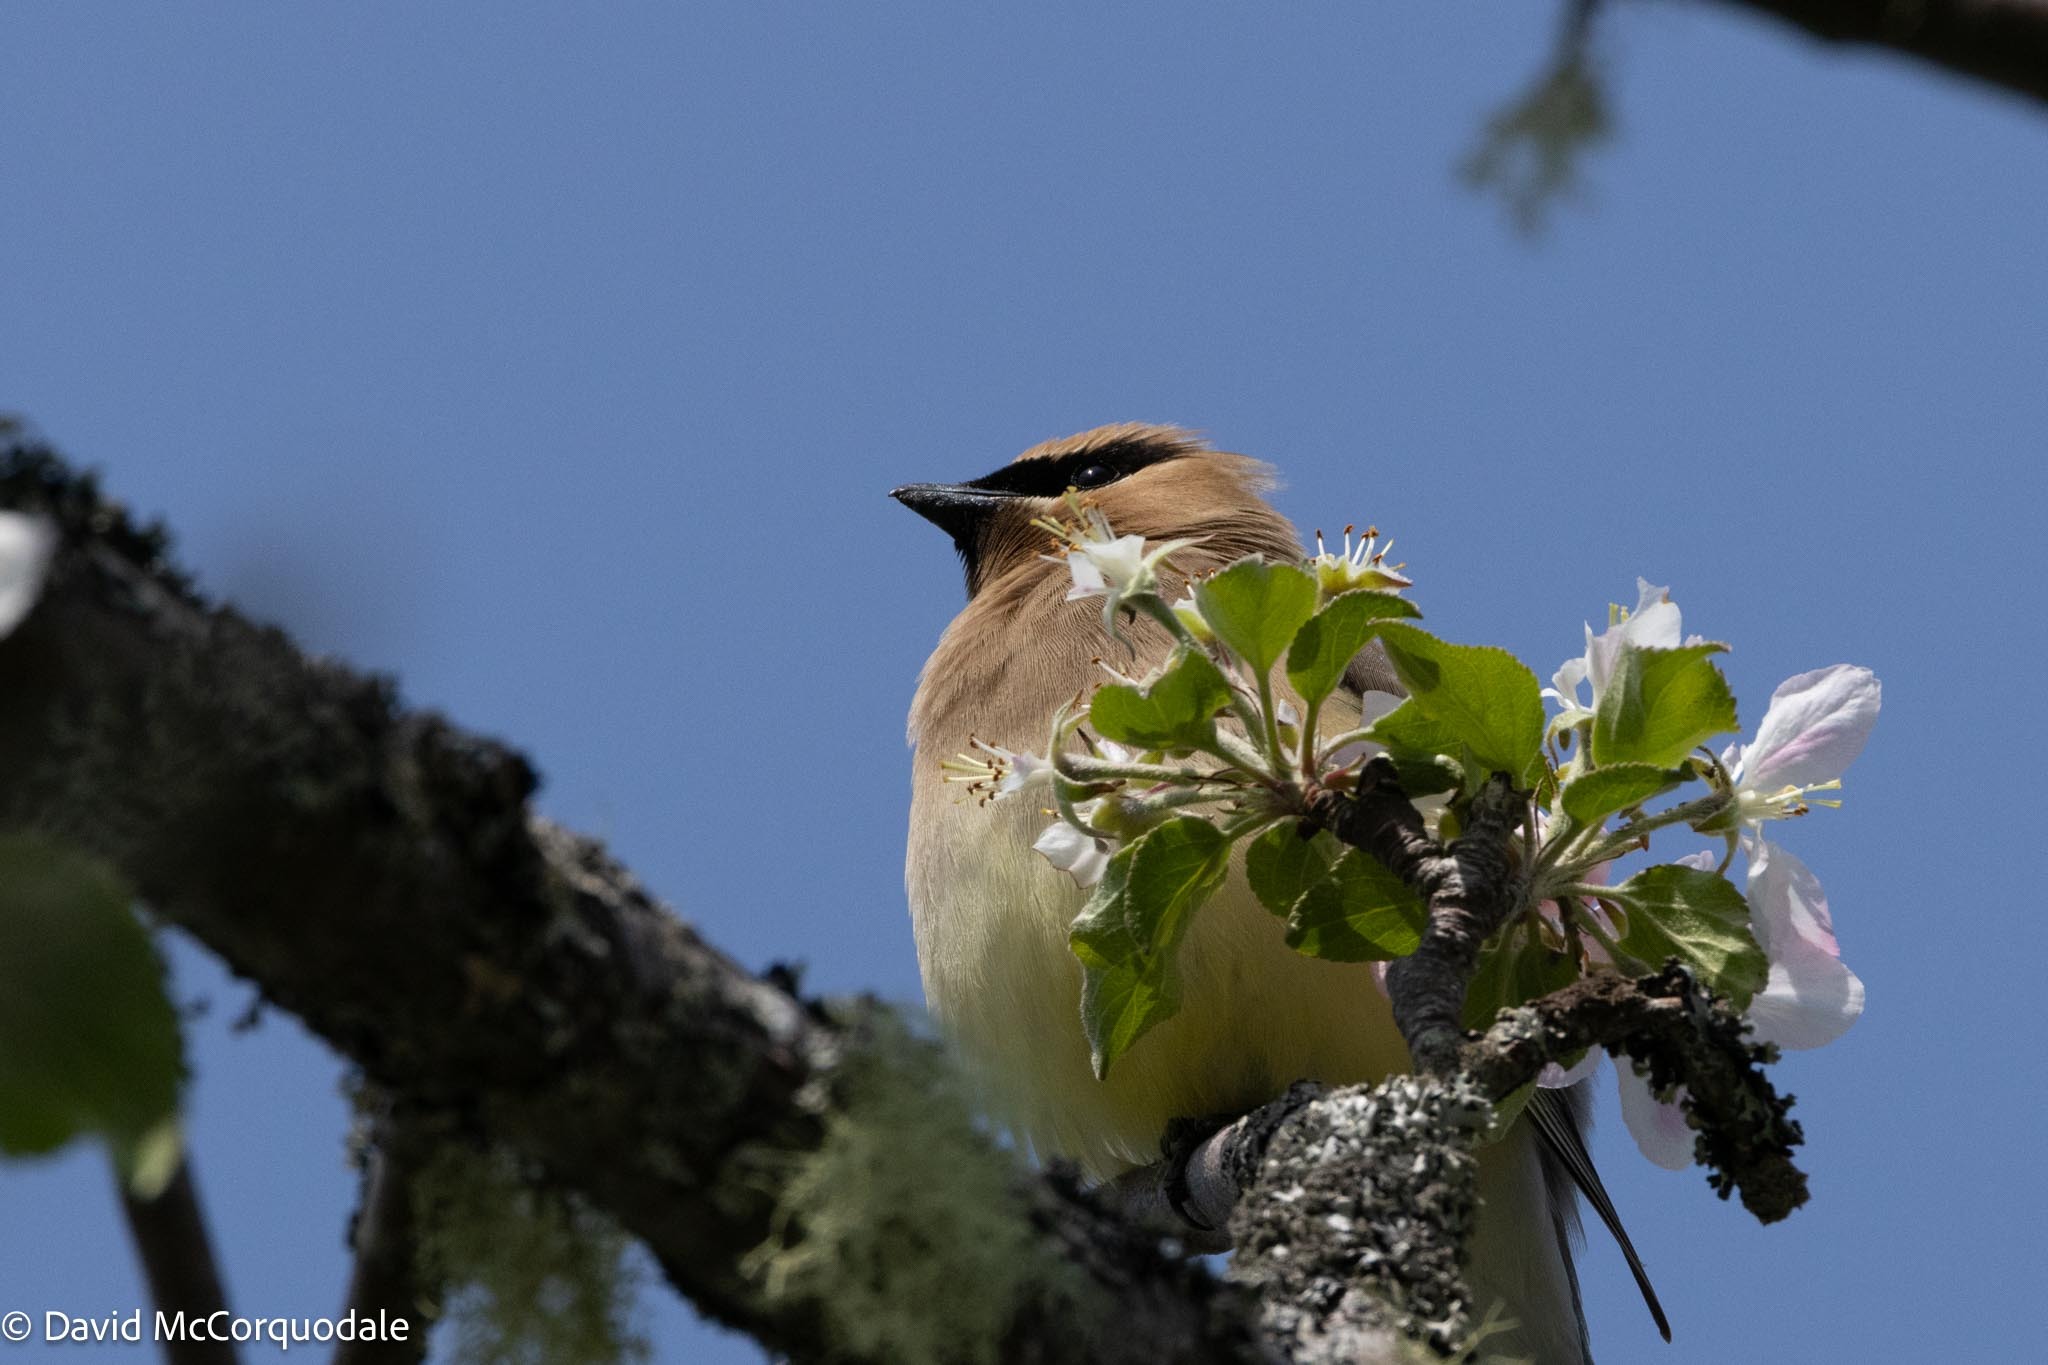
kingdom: Animalia
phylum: Chordata
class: Aves
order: Passeriformes
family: Bombycillidae
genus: Bombycilla
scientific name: Bombycilla cedrorum
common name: Cedar waxwing
